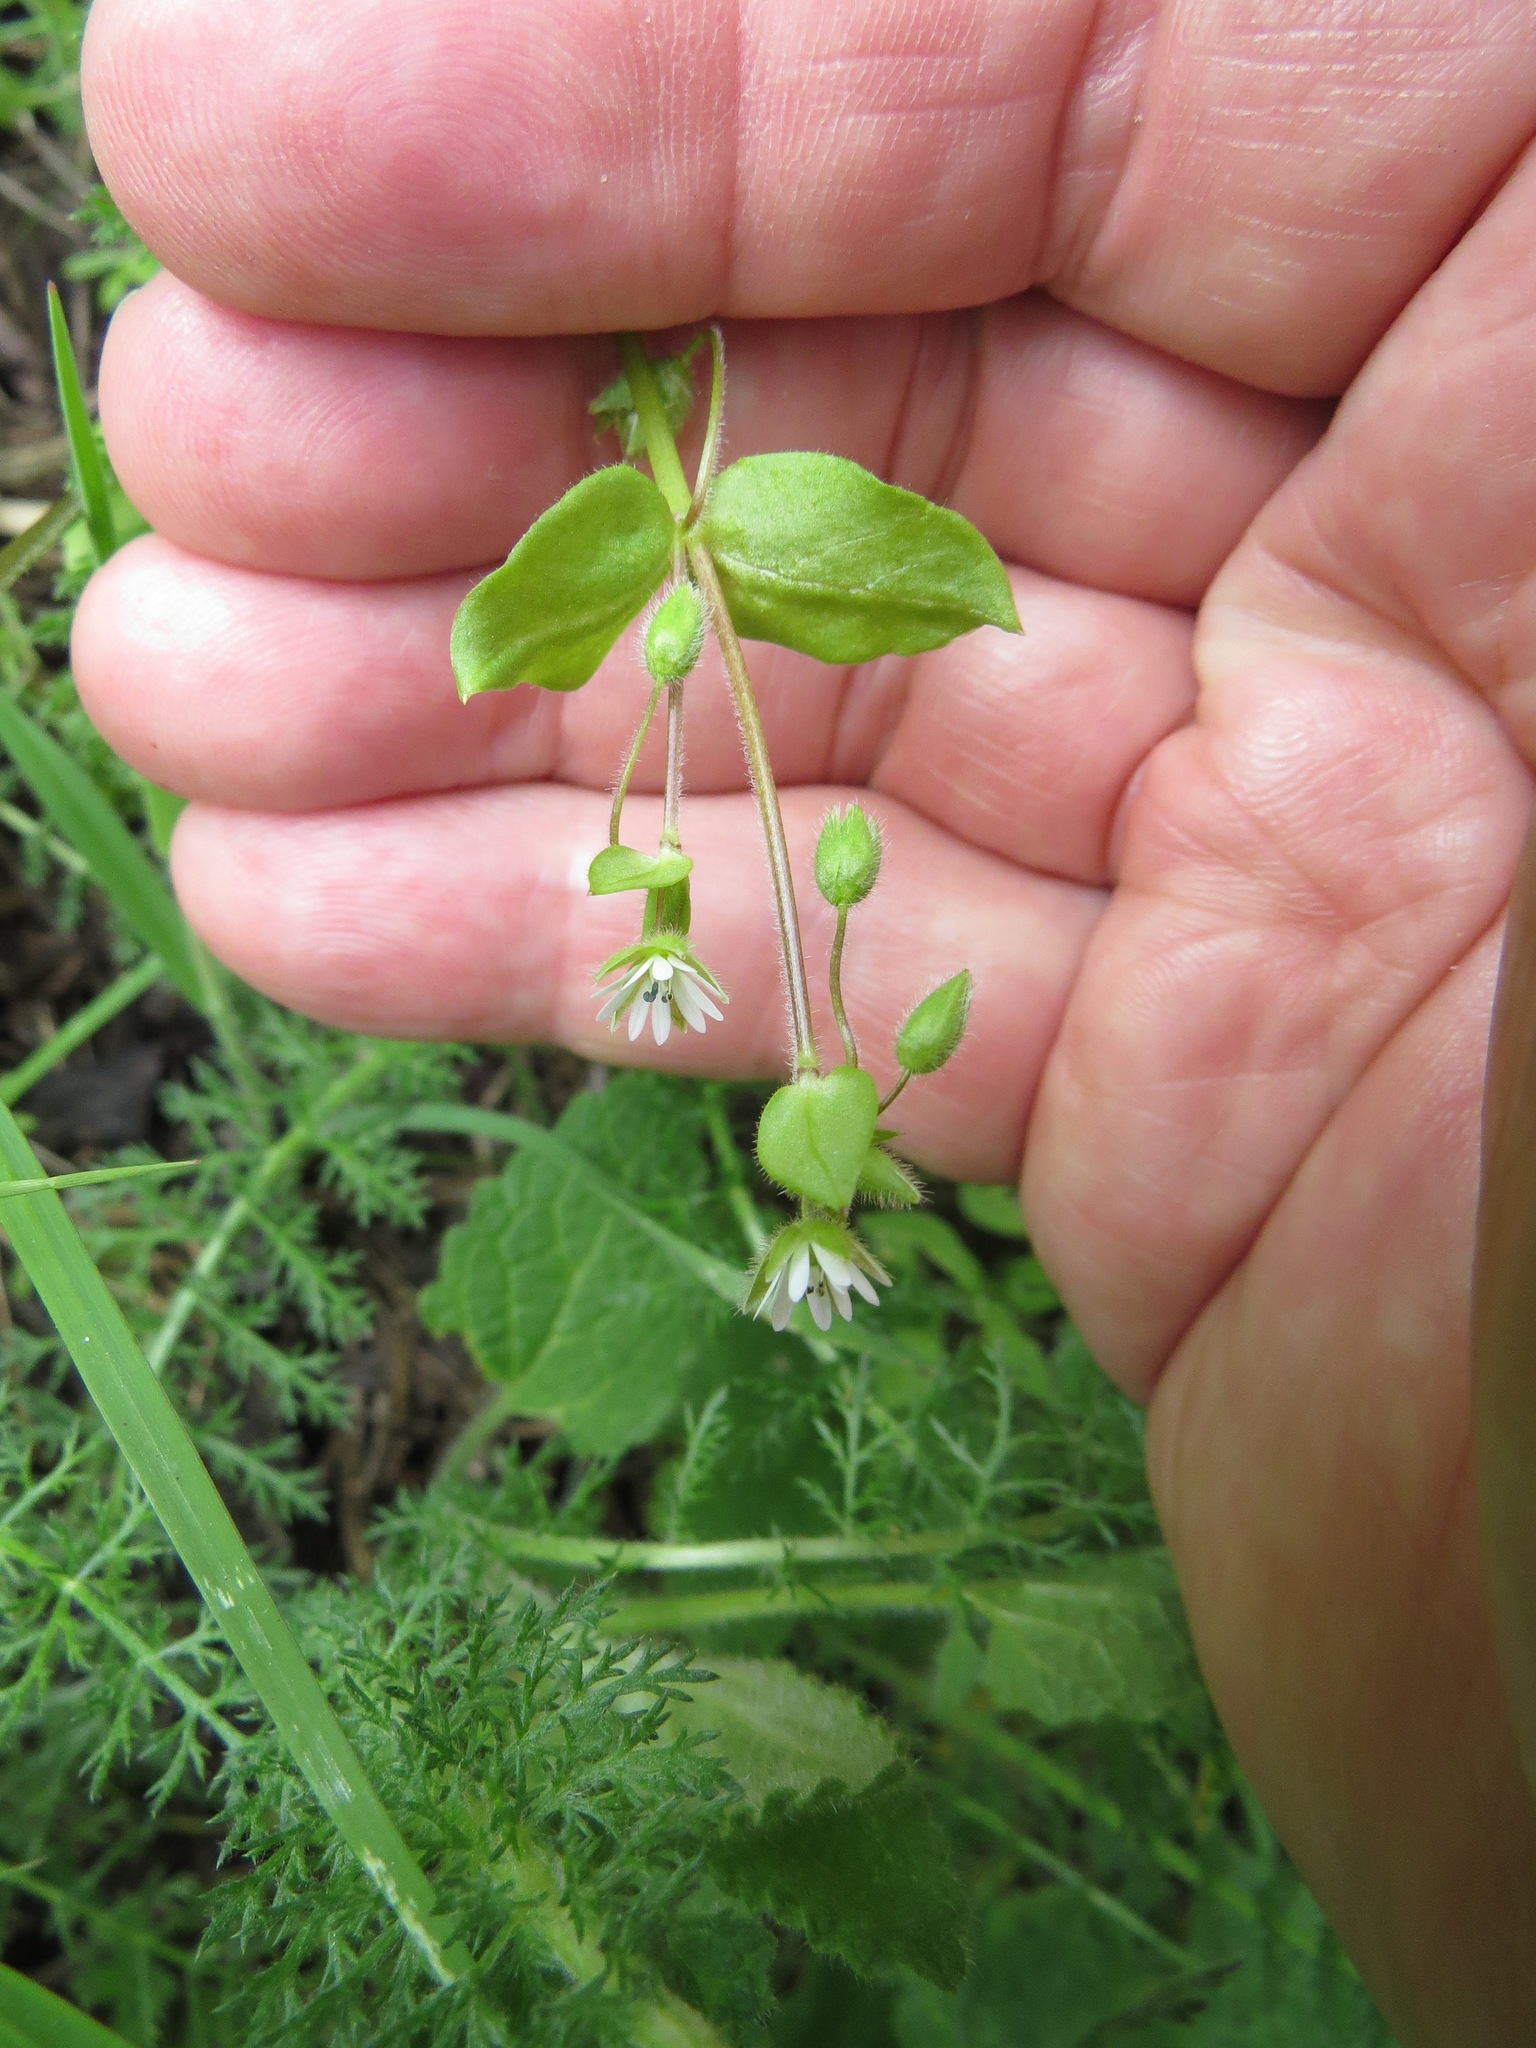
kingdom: Plantae
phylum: Tracheophyta
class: Magnoliopsida
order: Caryophyllales
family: Caryophyllaceae
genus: Stellaria
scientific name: Stellaria media
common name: Common chickweed
